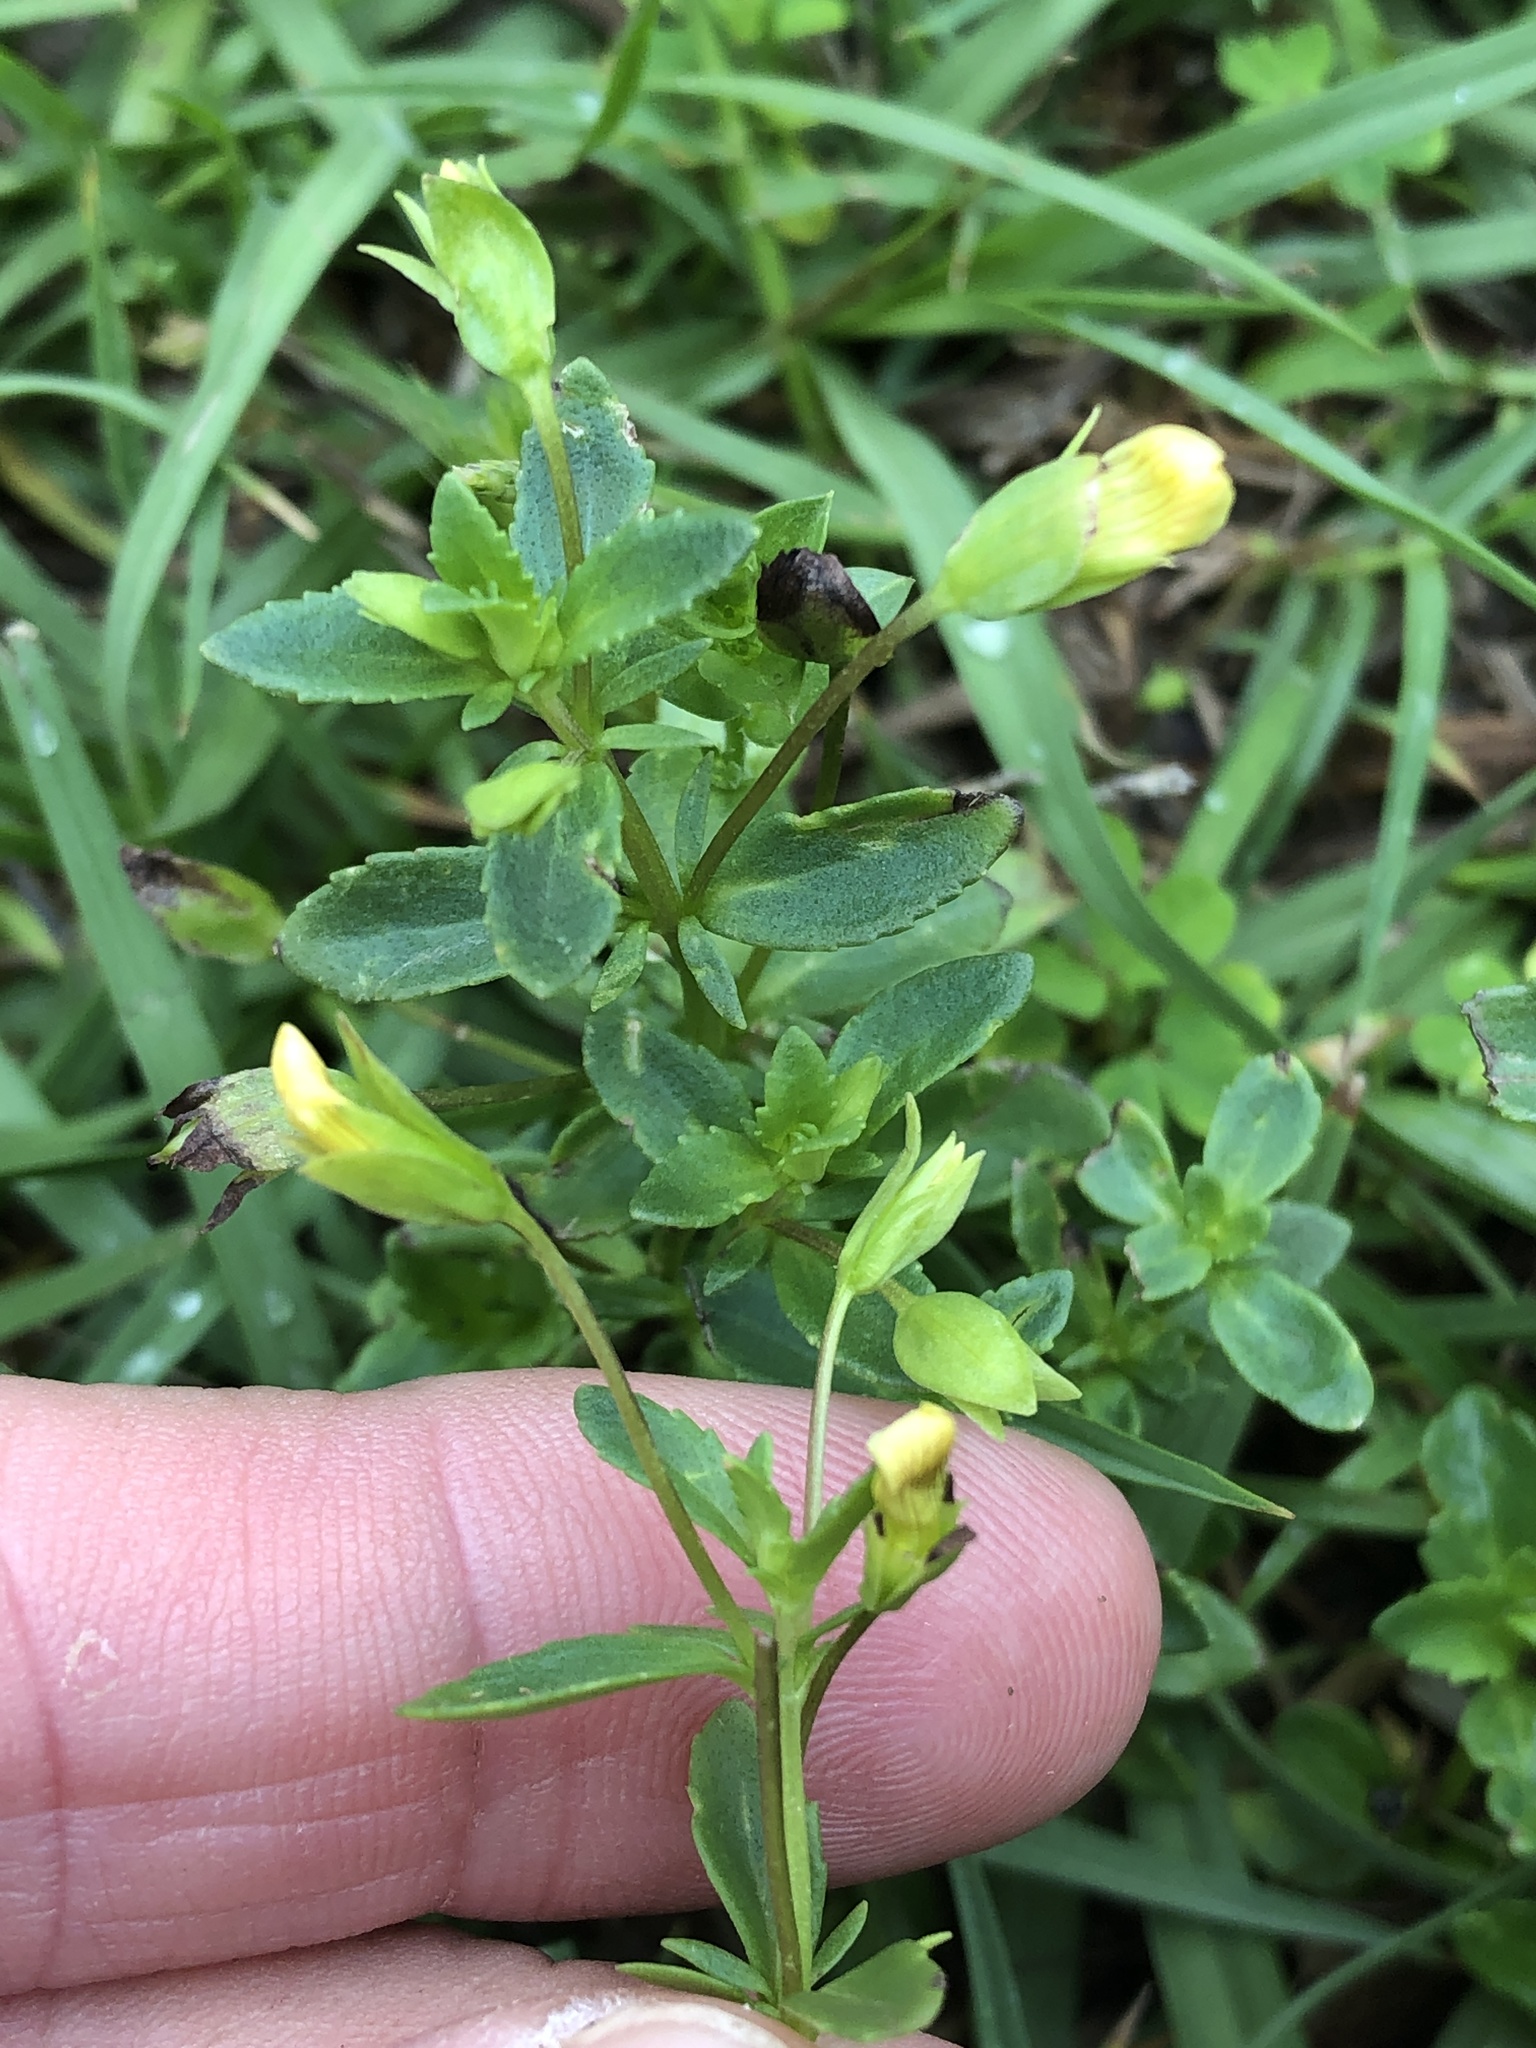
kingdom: Plantae
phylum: Tracheophyta
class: Magnoliopsida
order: Lamiales
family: Plantaginaceae
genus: Mecardonia
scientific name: Mecardonia procumbens
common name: Baby jump-up
